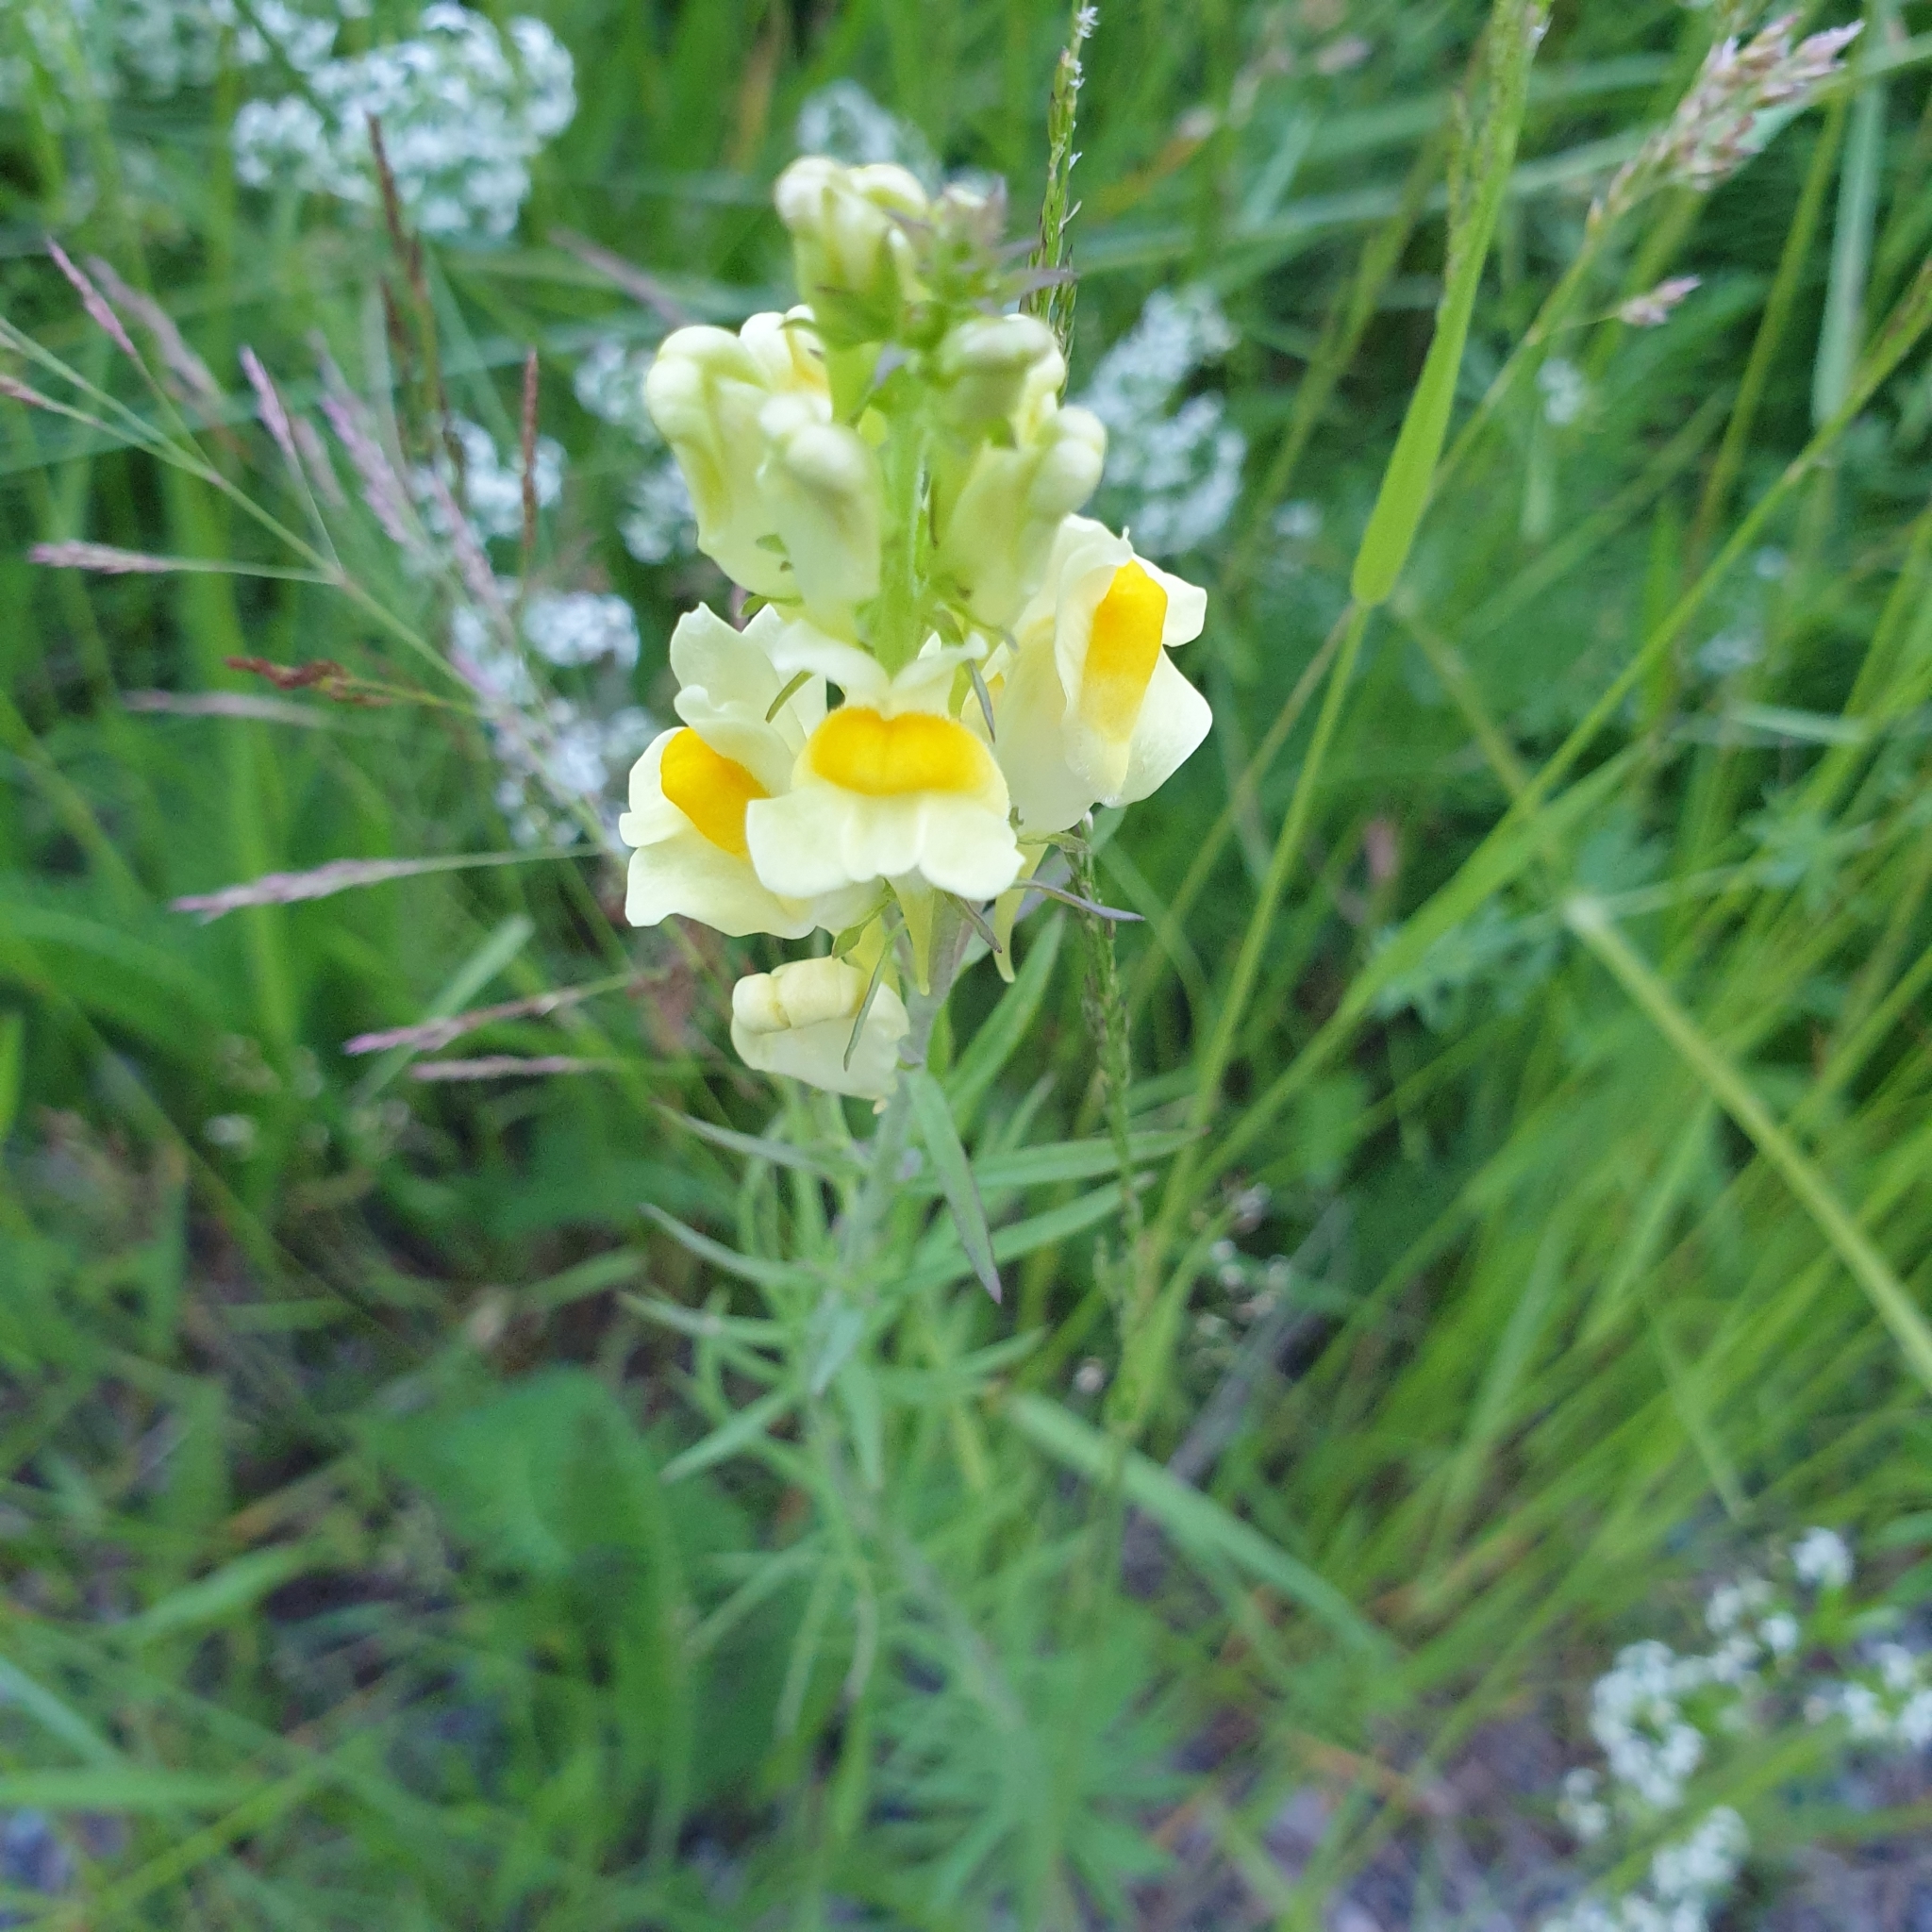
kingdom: Plantae
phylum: Tracheophyta
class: Magnoliopsida
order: Lamiales
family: Plantaginaceae
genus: Linaria
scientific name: Linaria vulgaris
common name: Butter and eggs
